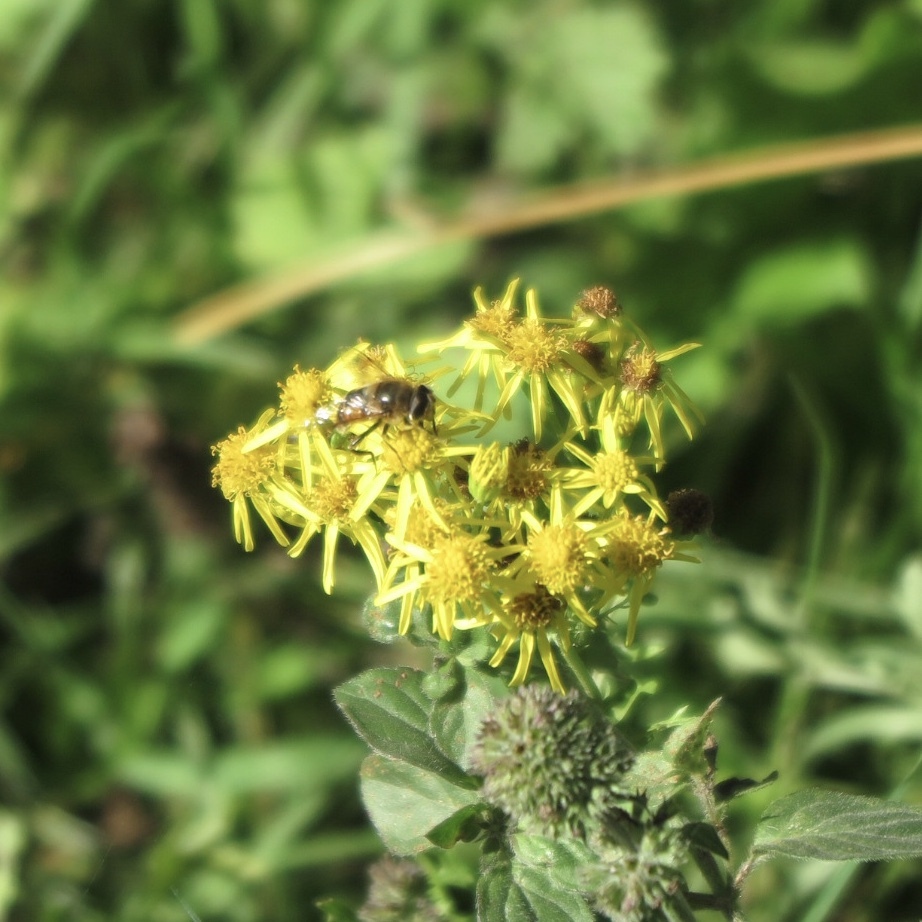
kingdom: Animalia
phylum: Arthropoda
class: Insecta
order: Diptera
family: Syrphidae
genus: Eristalis
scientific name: Eristalis tenax
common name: Drone fly
